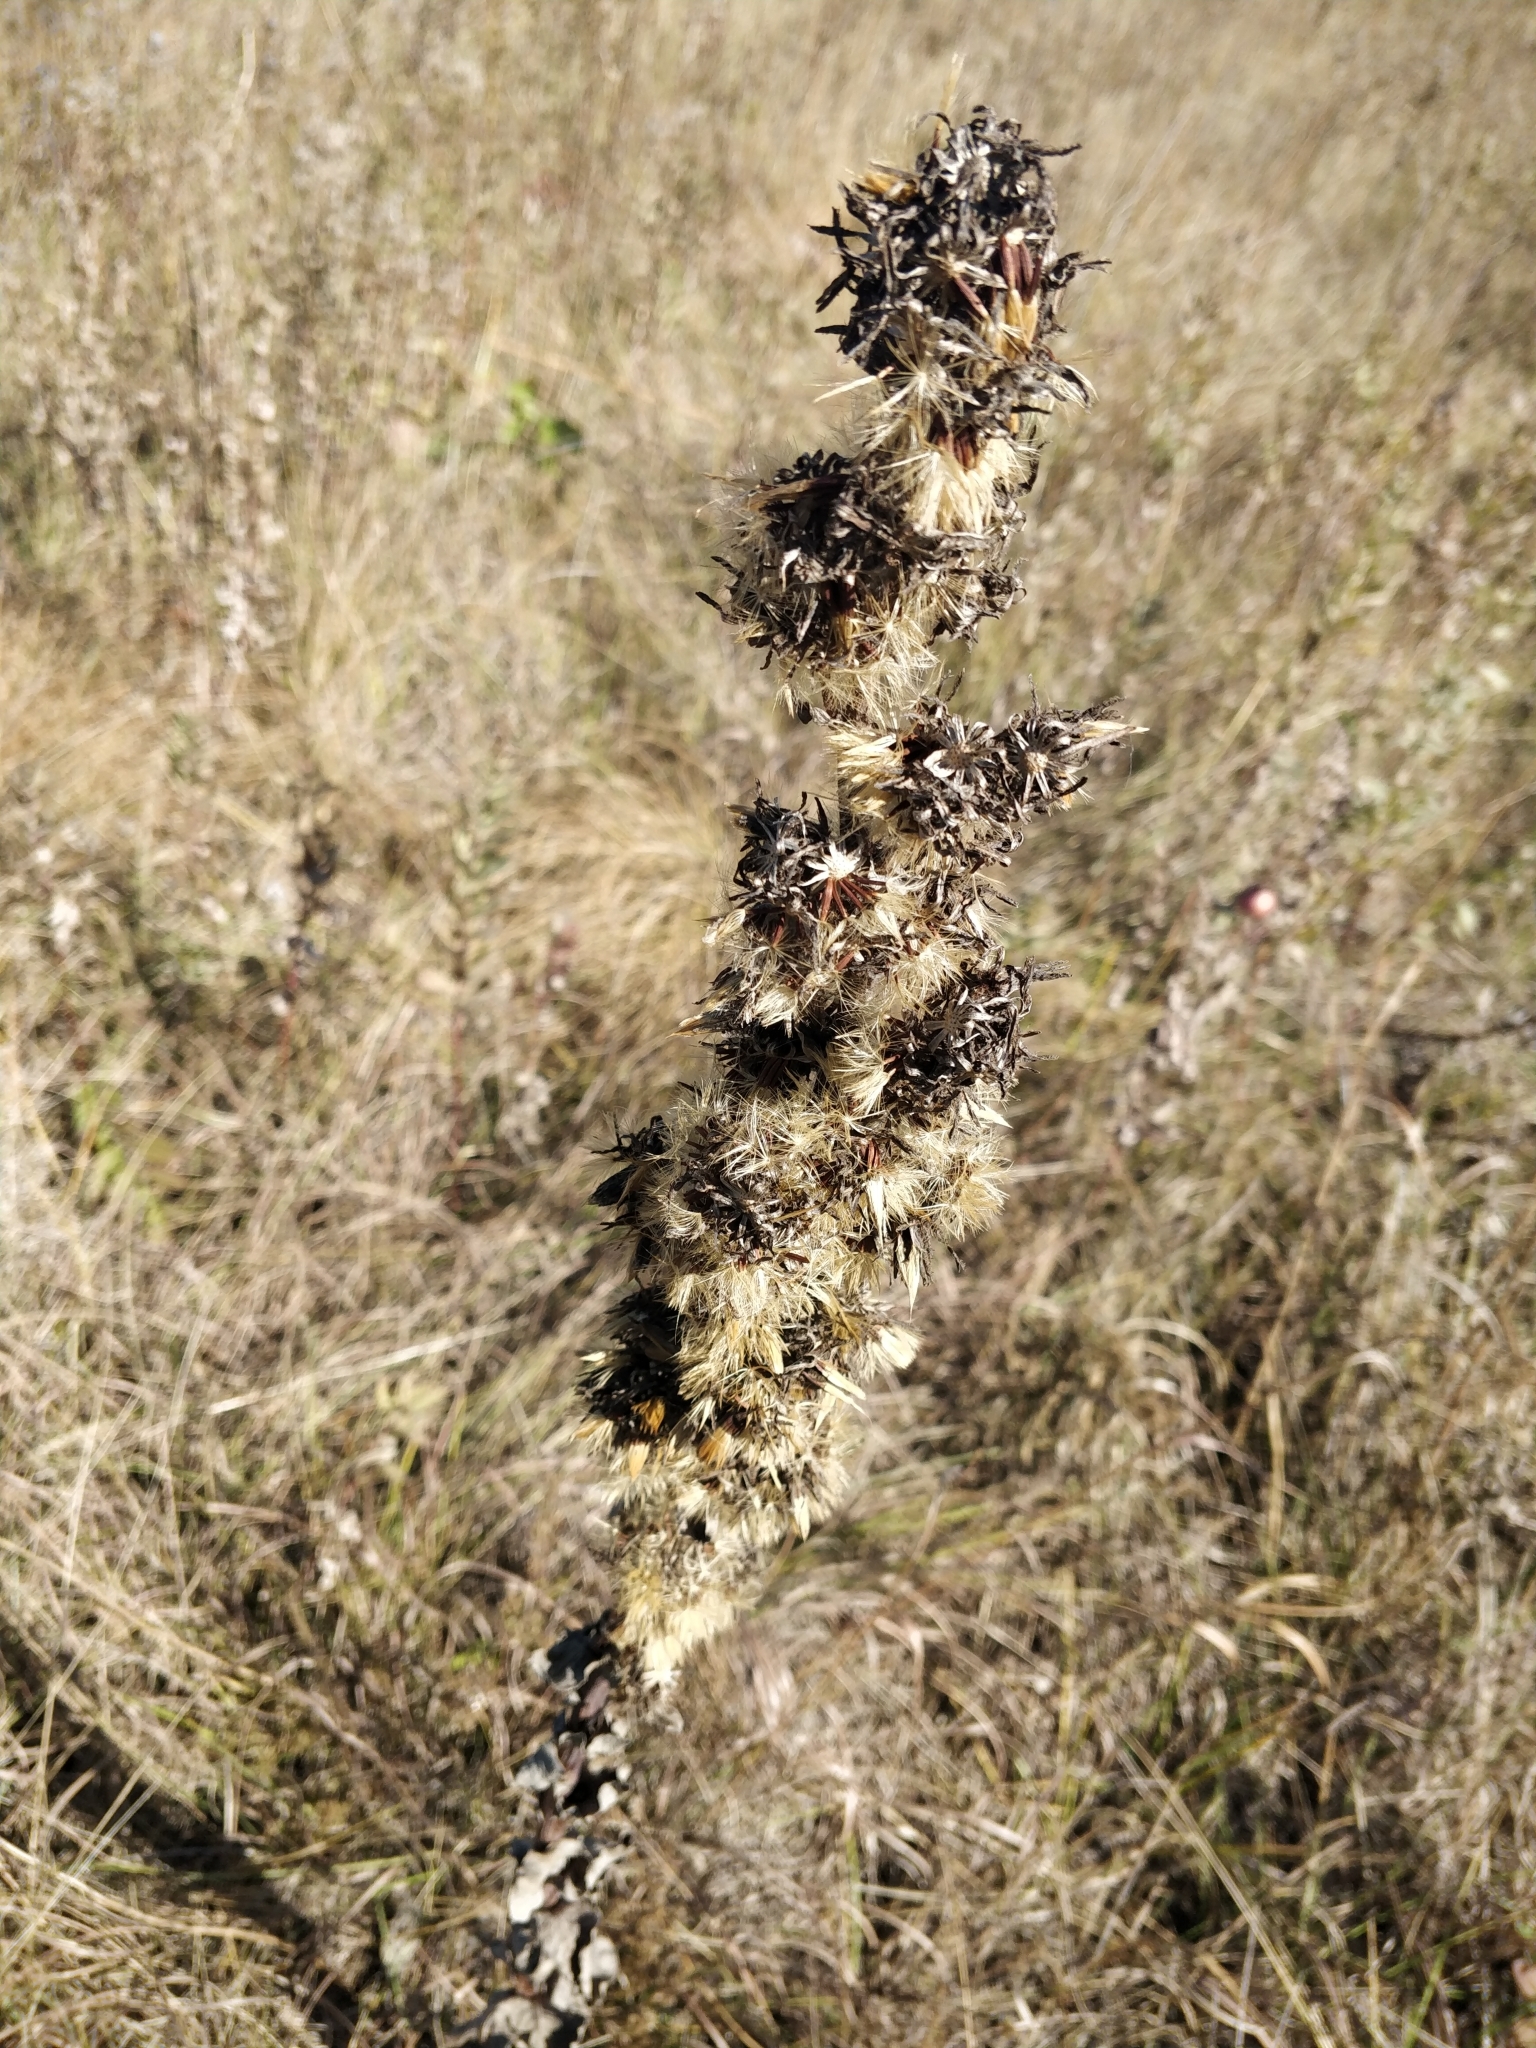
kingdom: Plantae
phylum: Tracheophyta
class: Magnoliopsida
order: Asterales
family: Asteraceae
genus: Nabalus
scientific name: Nabalus racemosus
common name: Glaucous white lettuce
